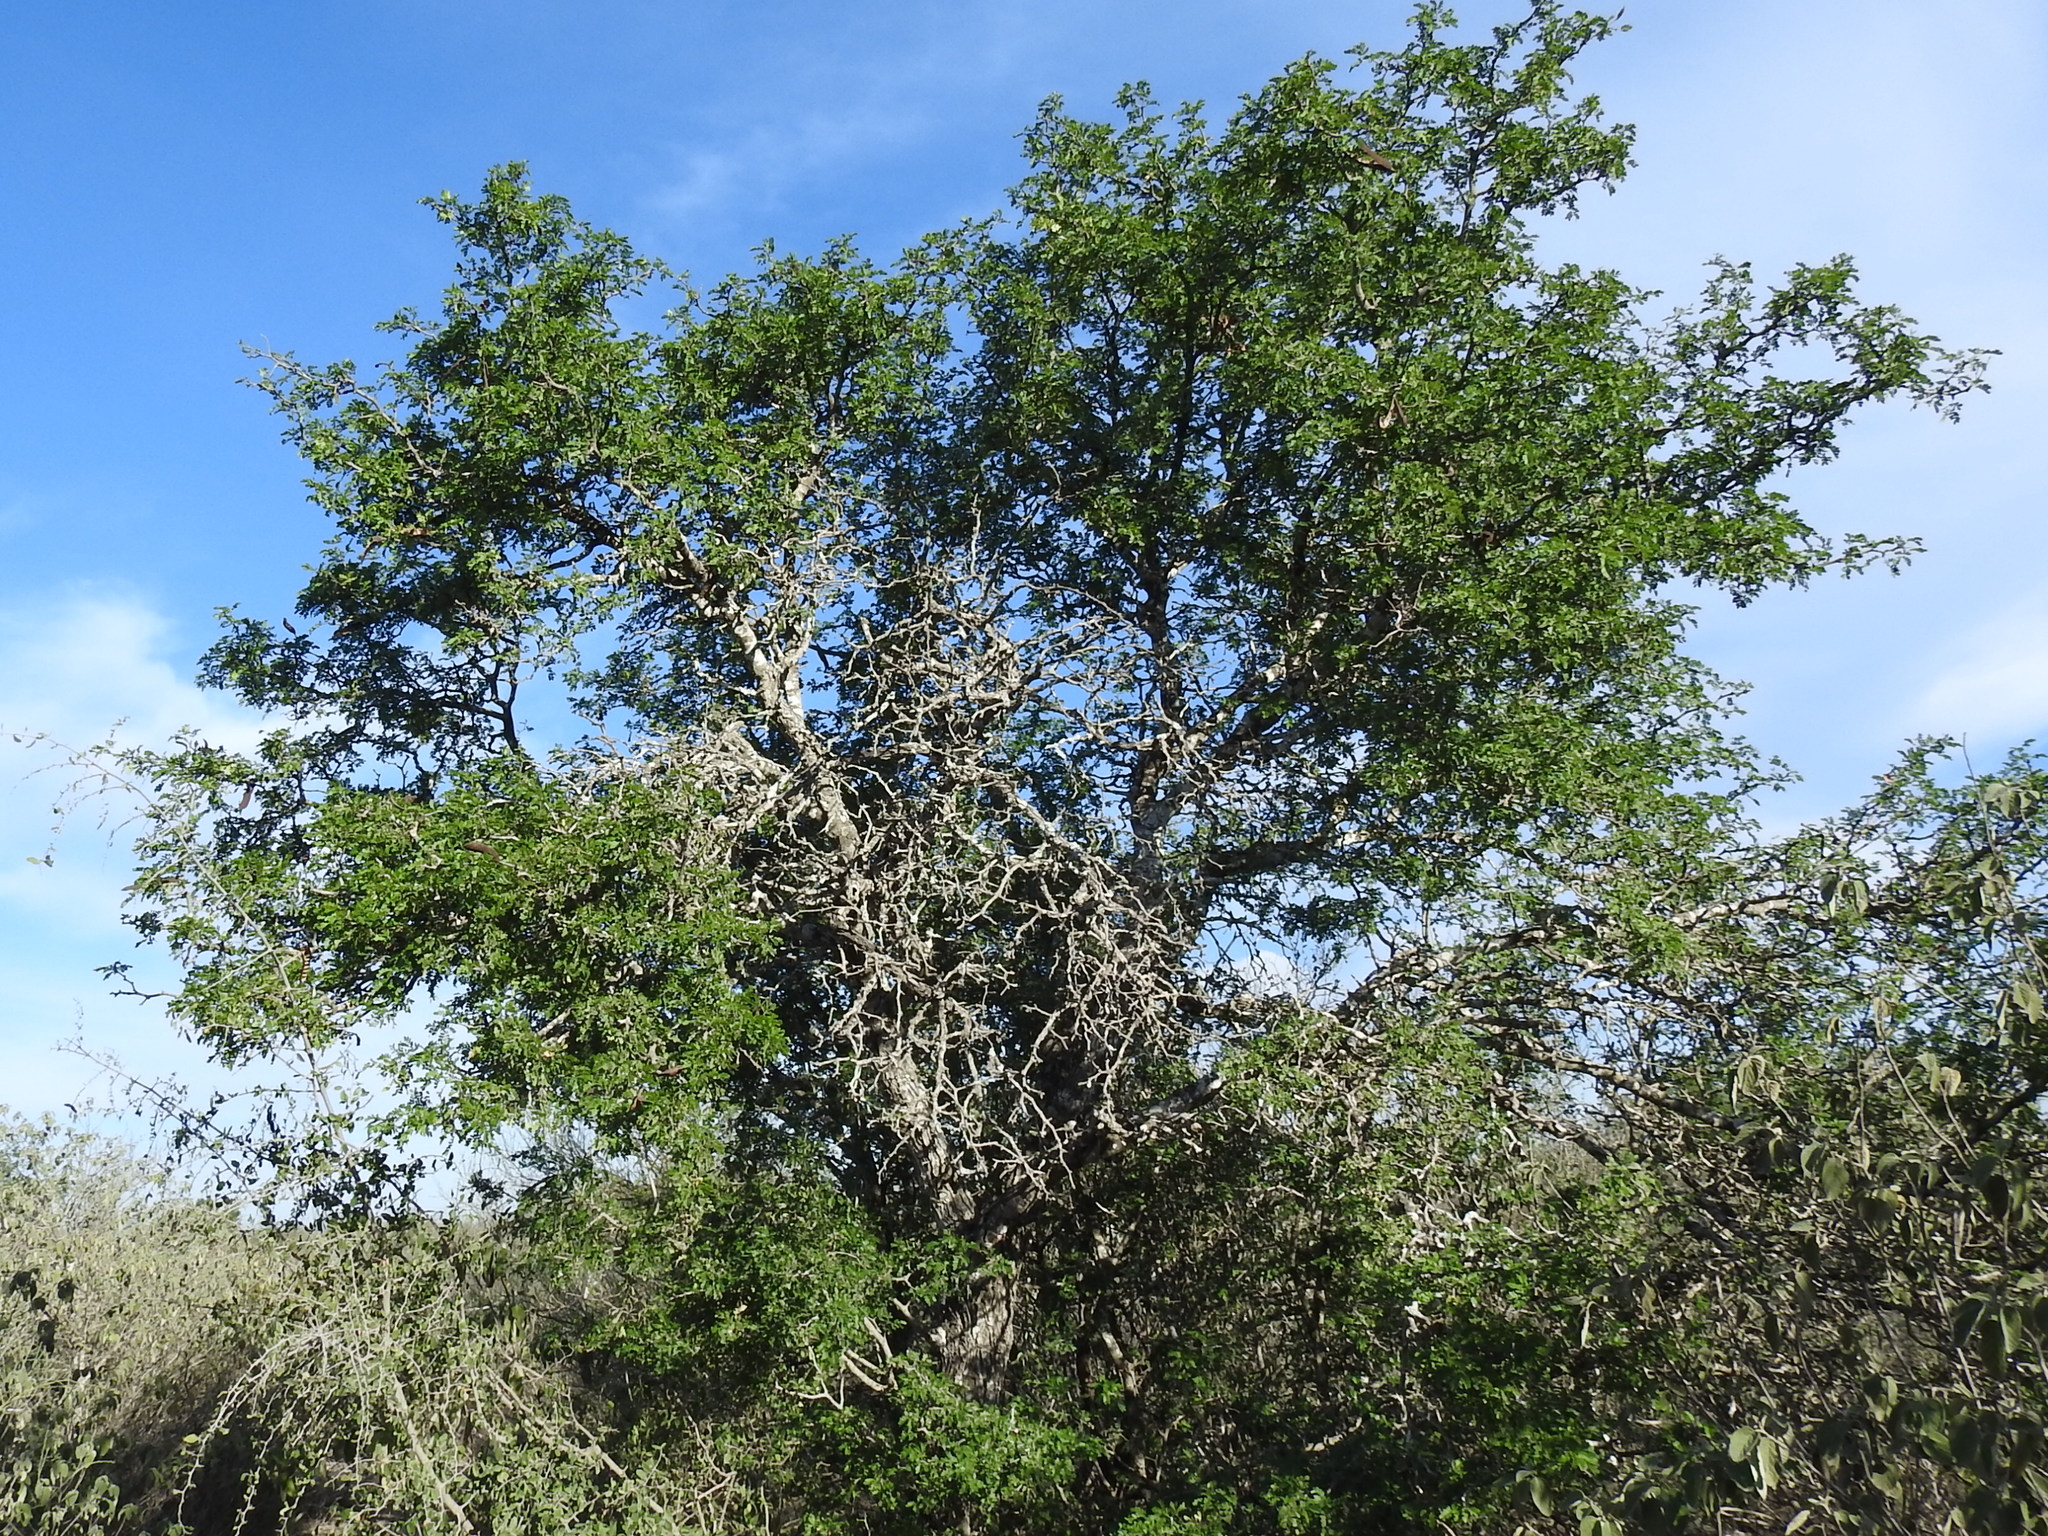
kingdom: Plantae
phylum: Tracheophyta
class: Magnoliopsida
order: Fabales
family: Fabaceae
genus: Ebenopsis
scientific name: Ebenopsis ebano
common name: Ebony blackbead
